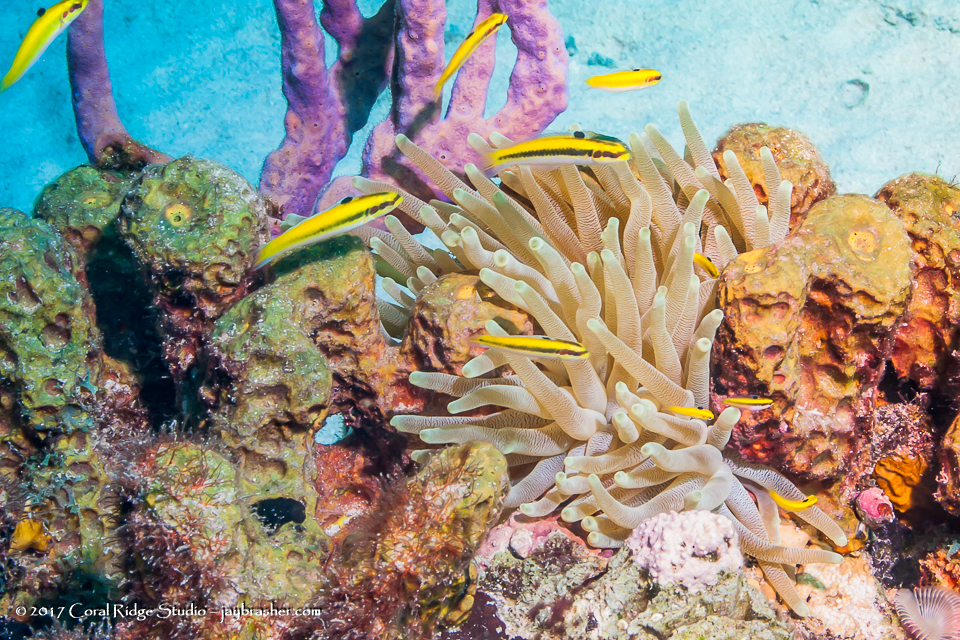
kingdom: Animalia
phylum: Chordata
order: Perciformes
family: Labridae
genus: Thalassoma
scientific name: Thalassoma bifasciatum
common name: Bluehead wrasse
